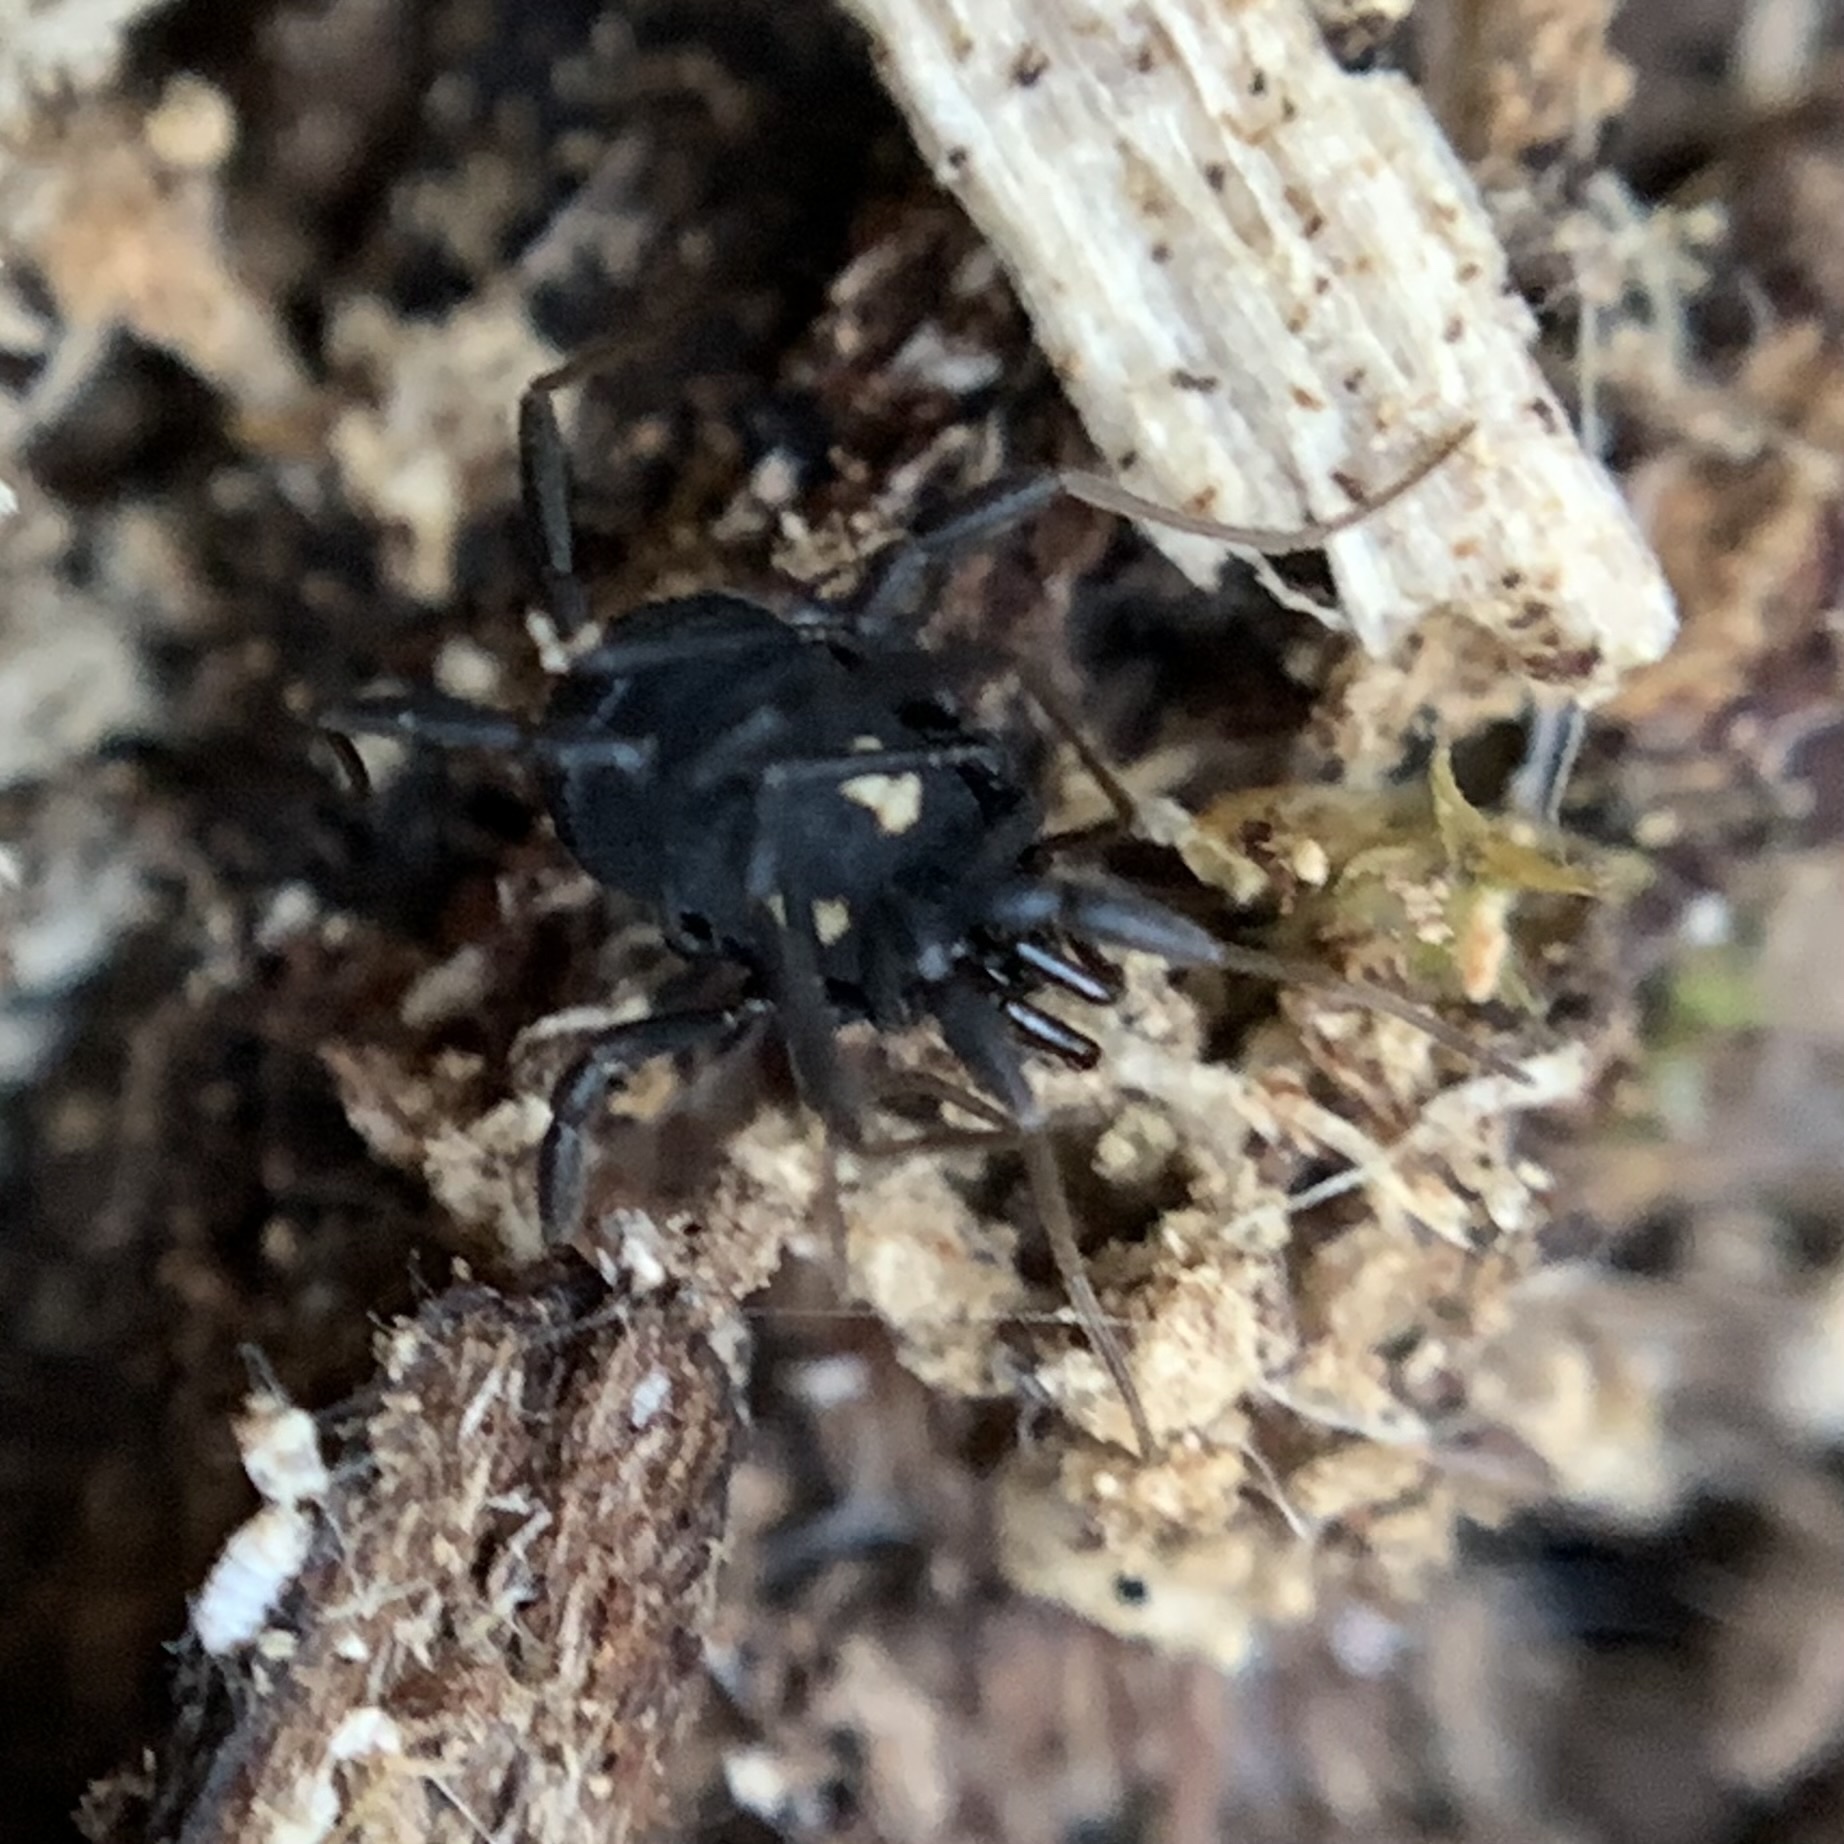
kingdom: Animalia
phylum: Arthropoda
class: Arachnida
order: Opiliones
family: Nemastomatidae
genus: Nemastoma
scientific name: Nemastoma bimaculatum
